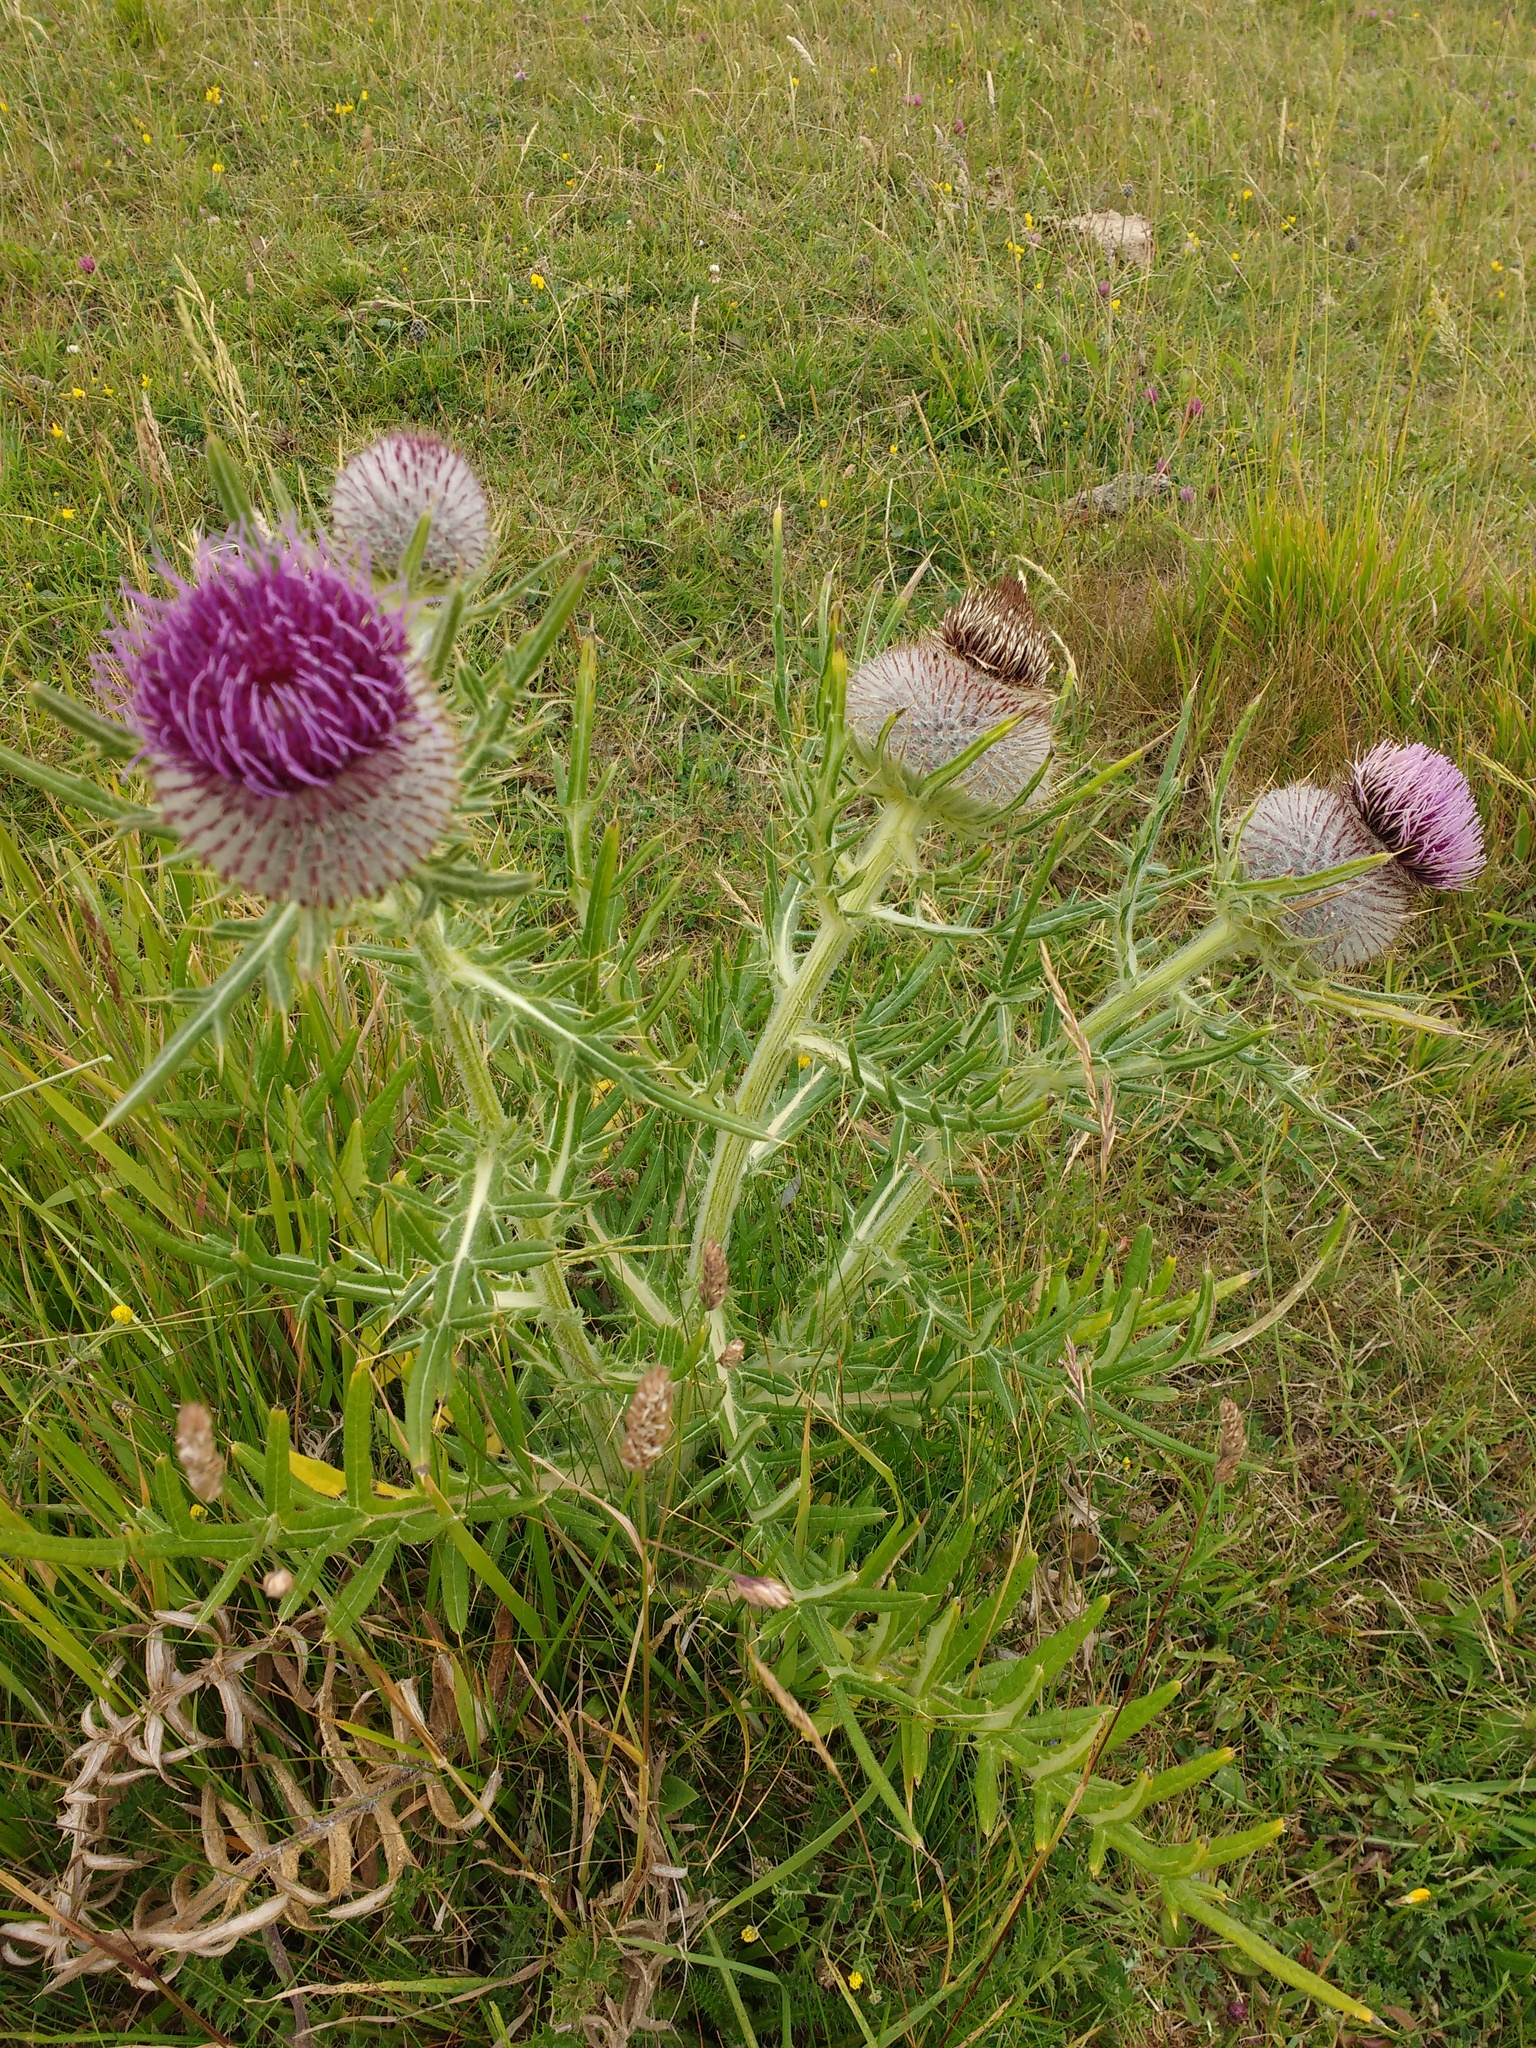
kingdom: Plantae
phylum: Tracheophyta
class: Magnoliopsida
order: Asterales
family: Asteraceae
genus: Lophiolepis
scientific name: Lophiolepis eriophora
